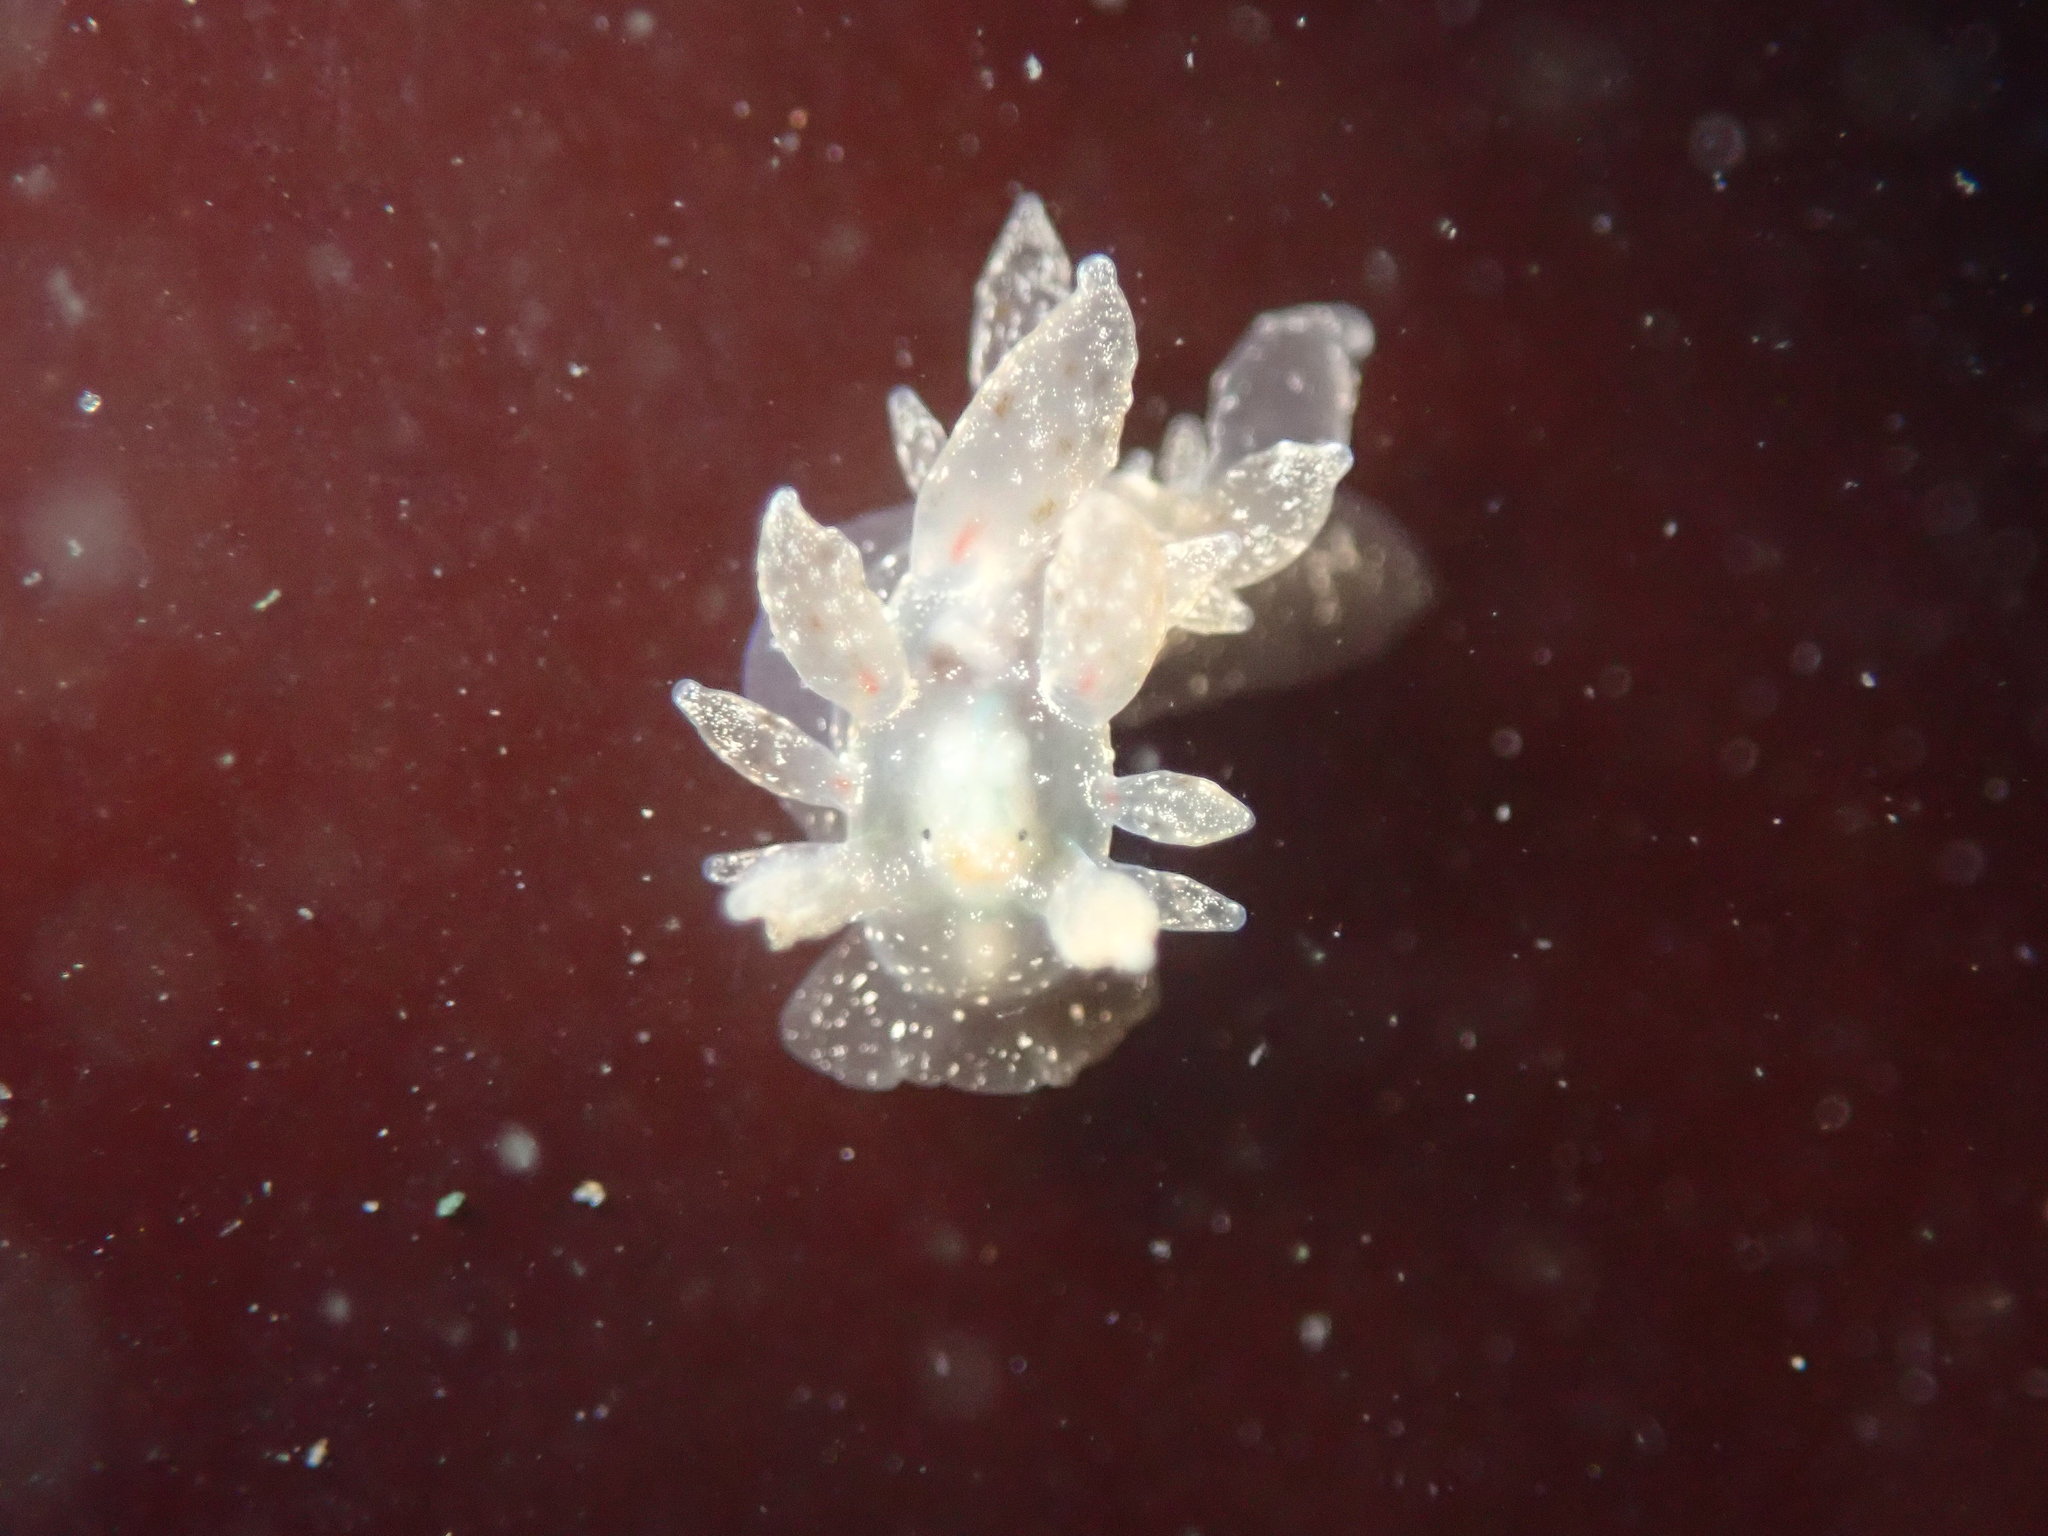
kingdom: Animalia
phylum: Mollusca
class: Gastropoda
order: Nudibranchia
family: Dironidae
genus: Dirona
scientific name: Dirona picta
